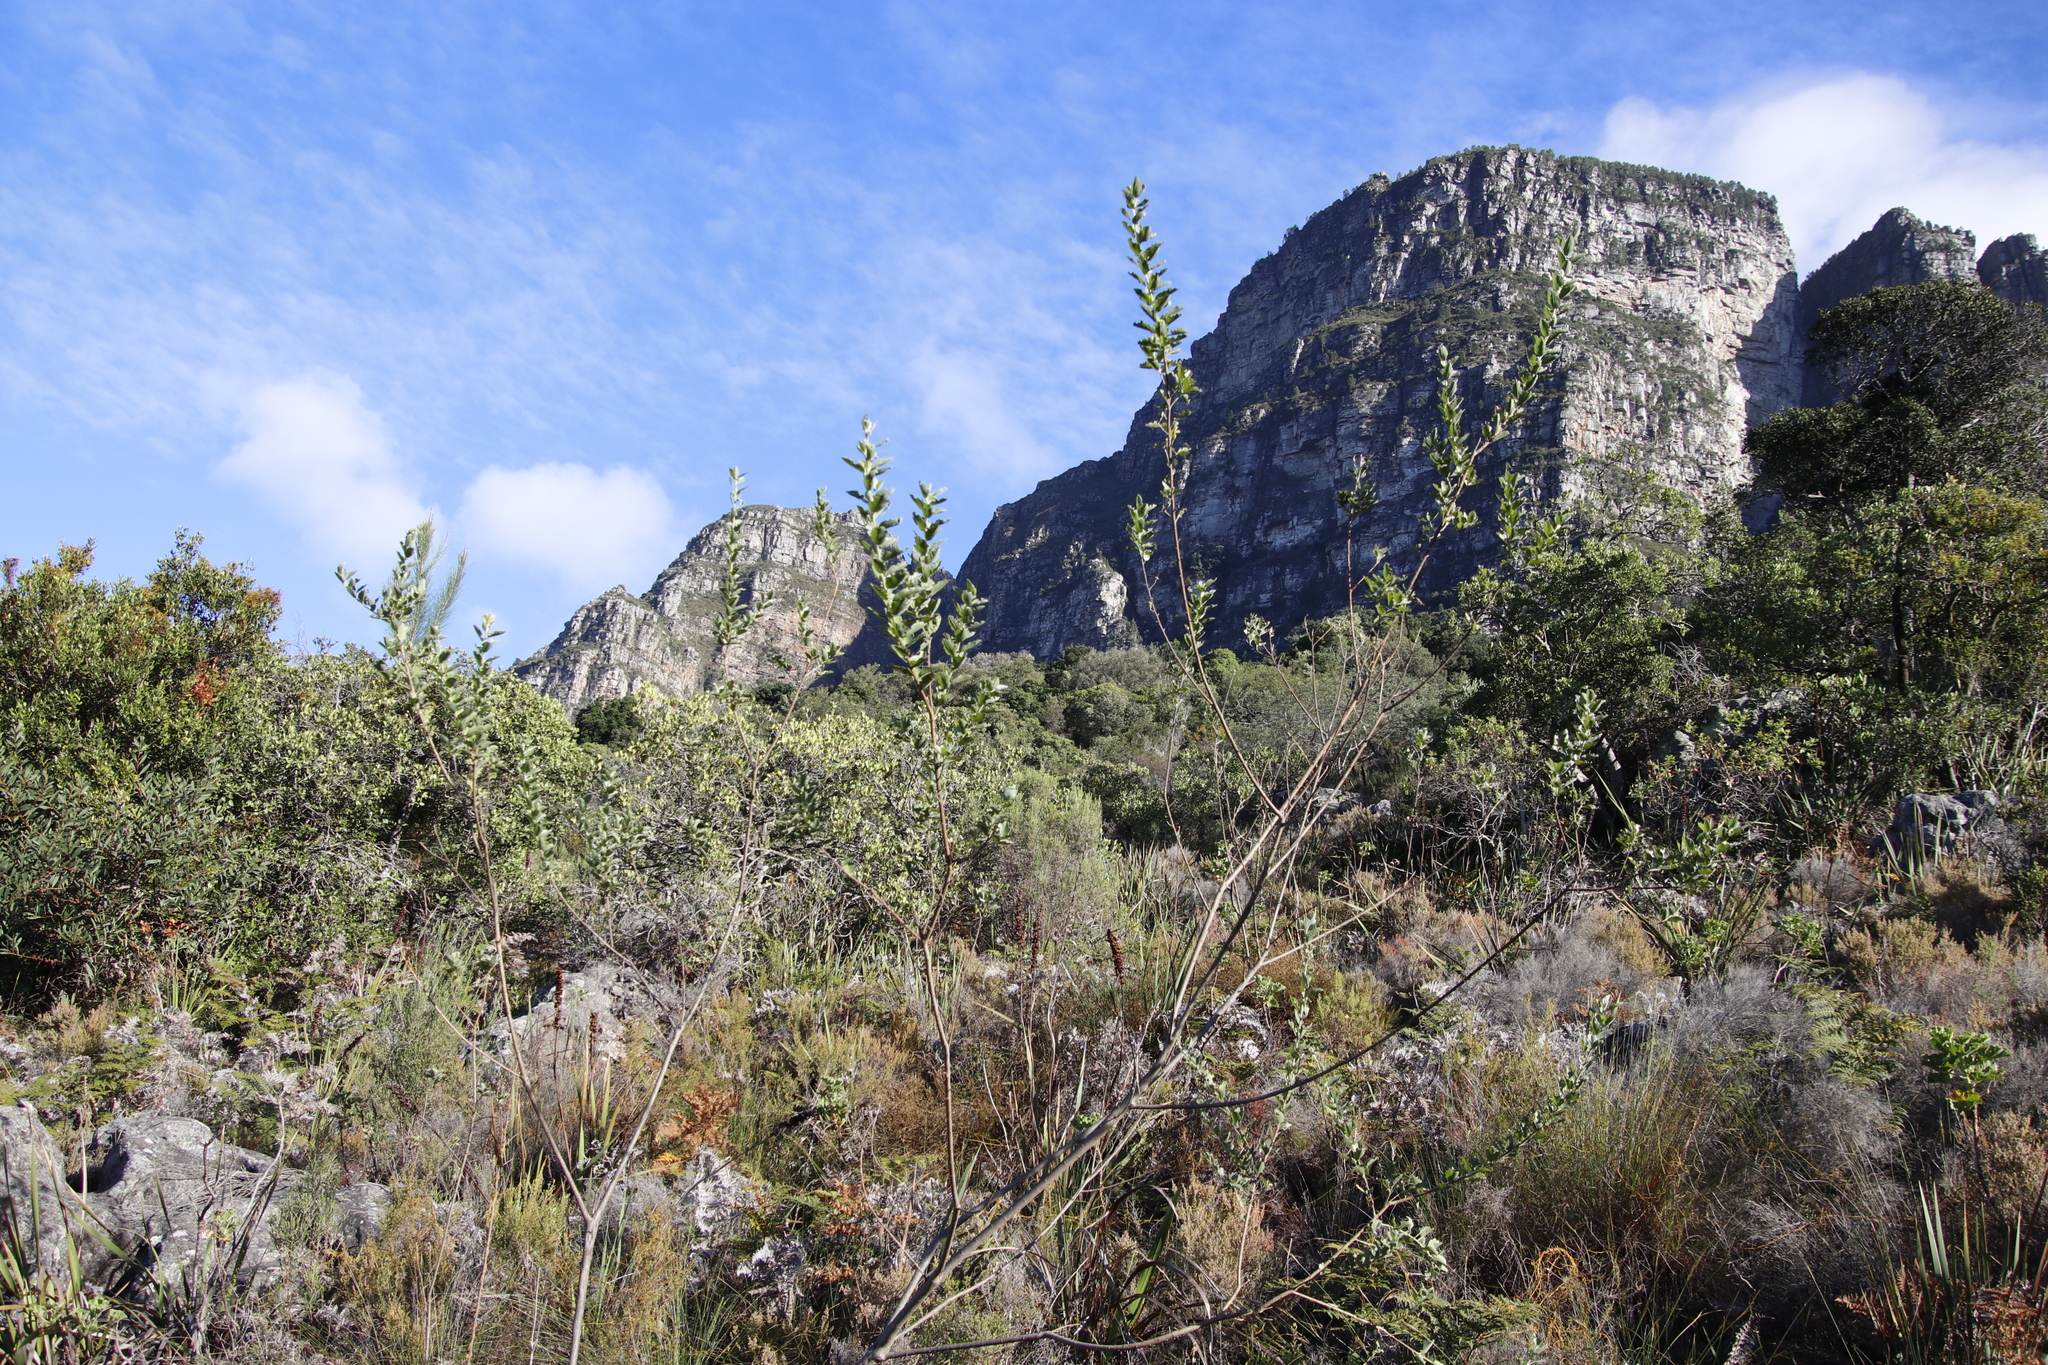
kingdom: Plantae
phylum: Tracheophyta
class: Magnoliopsida
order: Fabales
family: Fabaceae
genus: Podalyria
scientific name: Podalyria calyptrata
